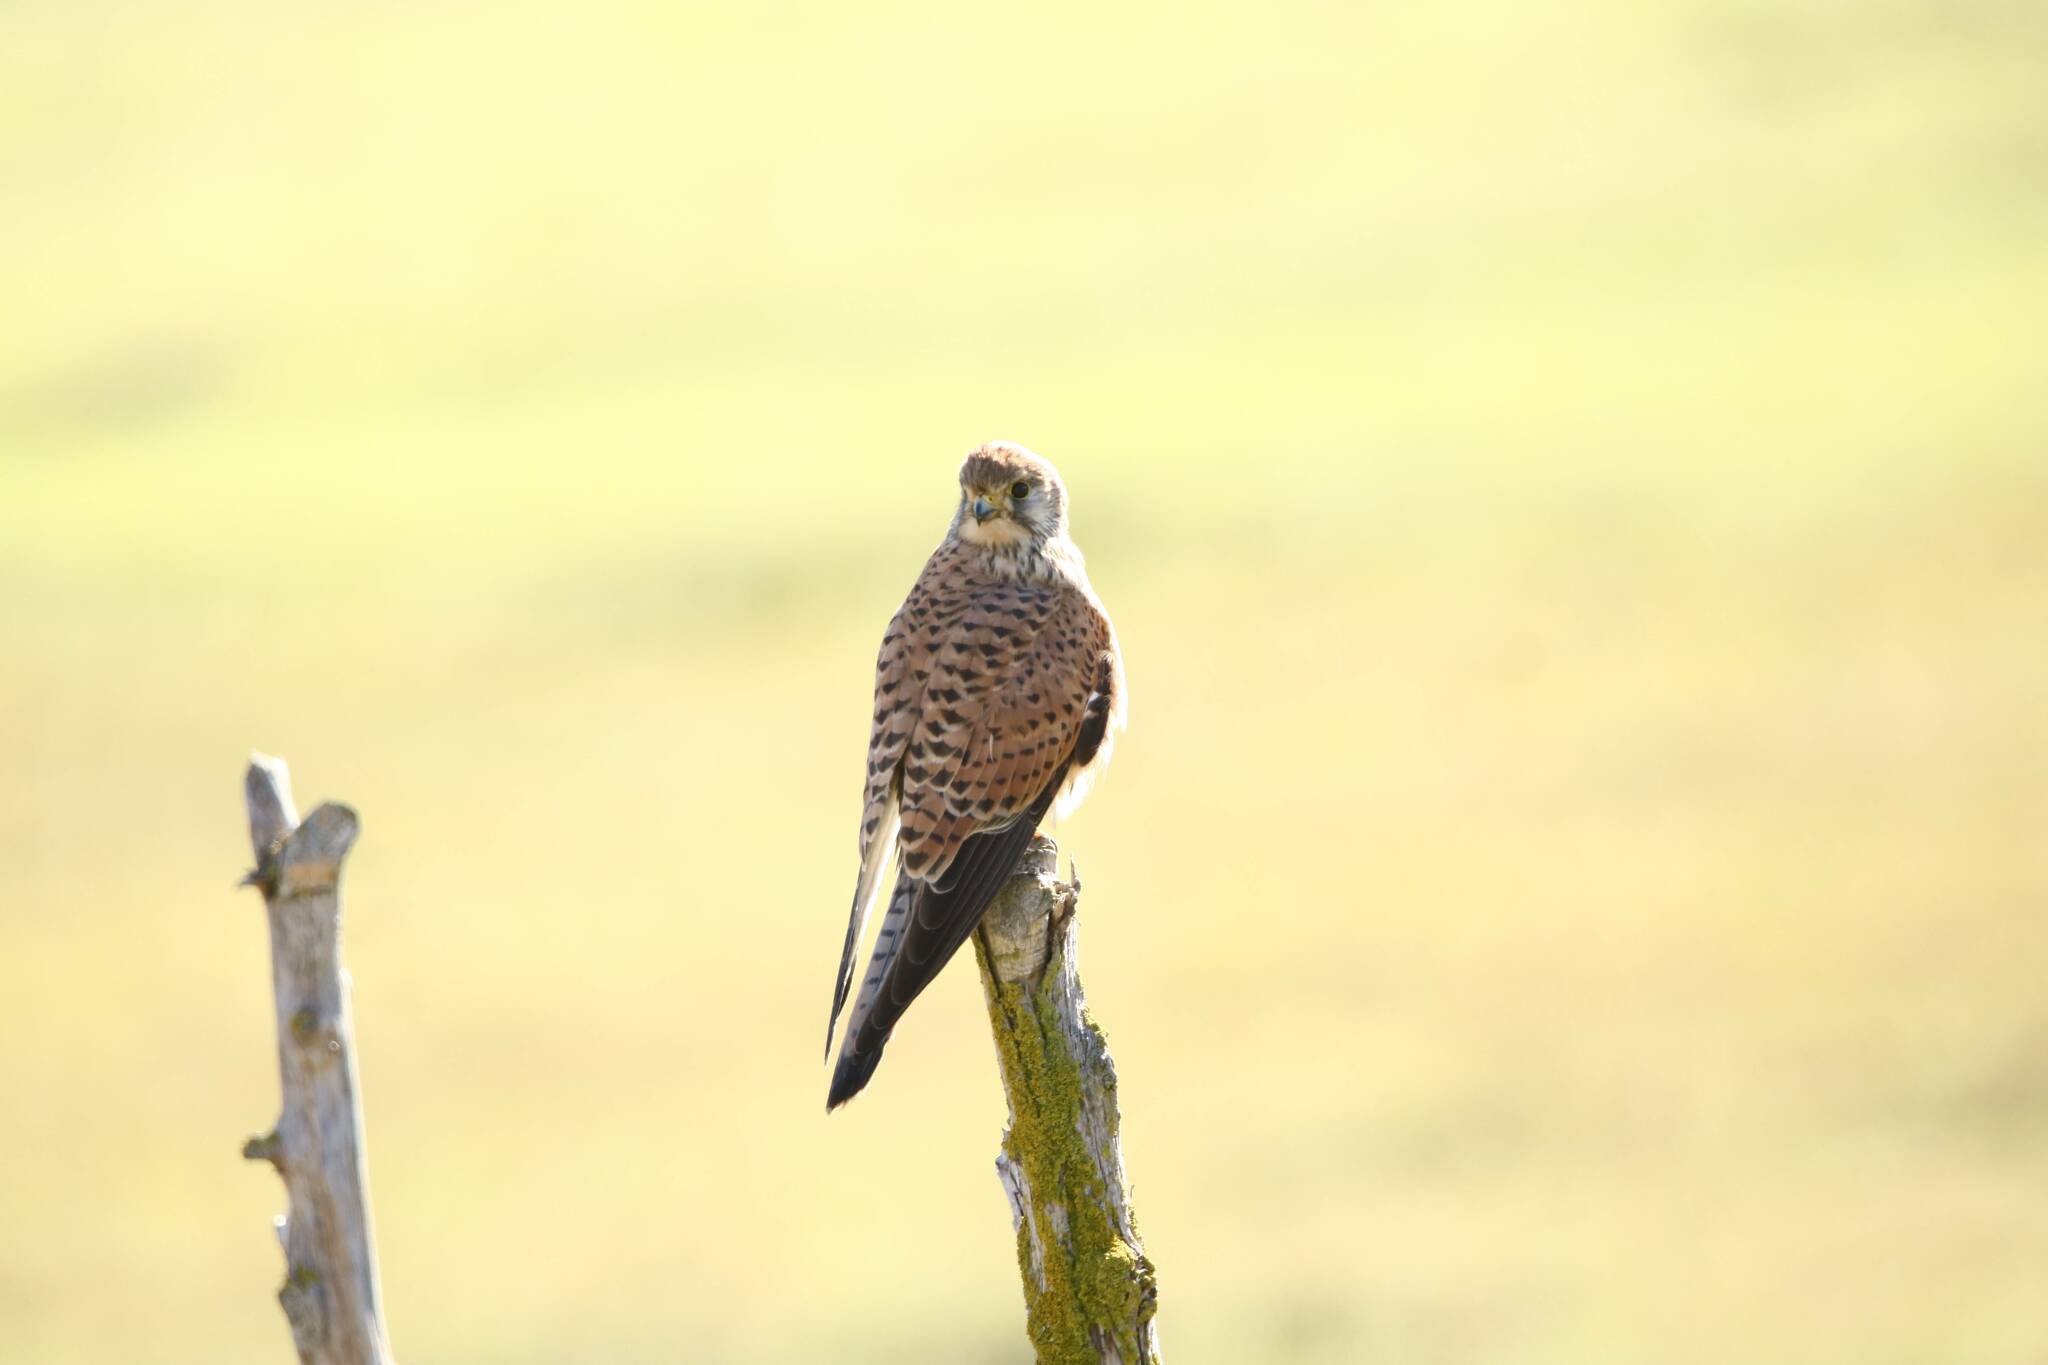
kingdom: Animalia
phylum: Chordata
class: Aves
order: Falconiformes
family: Falconidae
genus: Falco
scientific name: Falco tinnunculus
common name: Common kestrel
